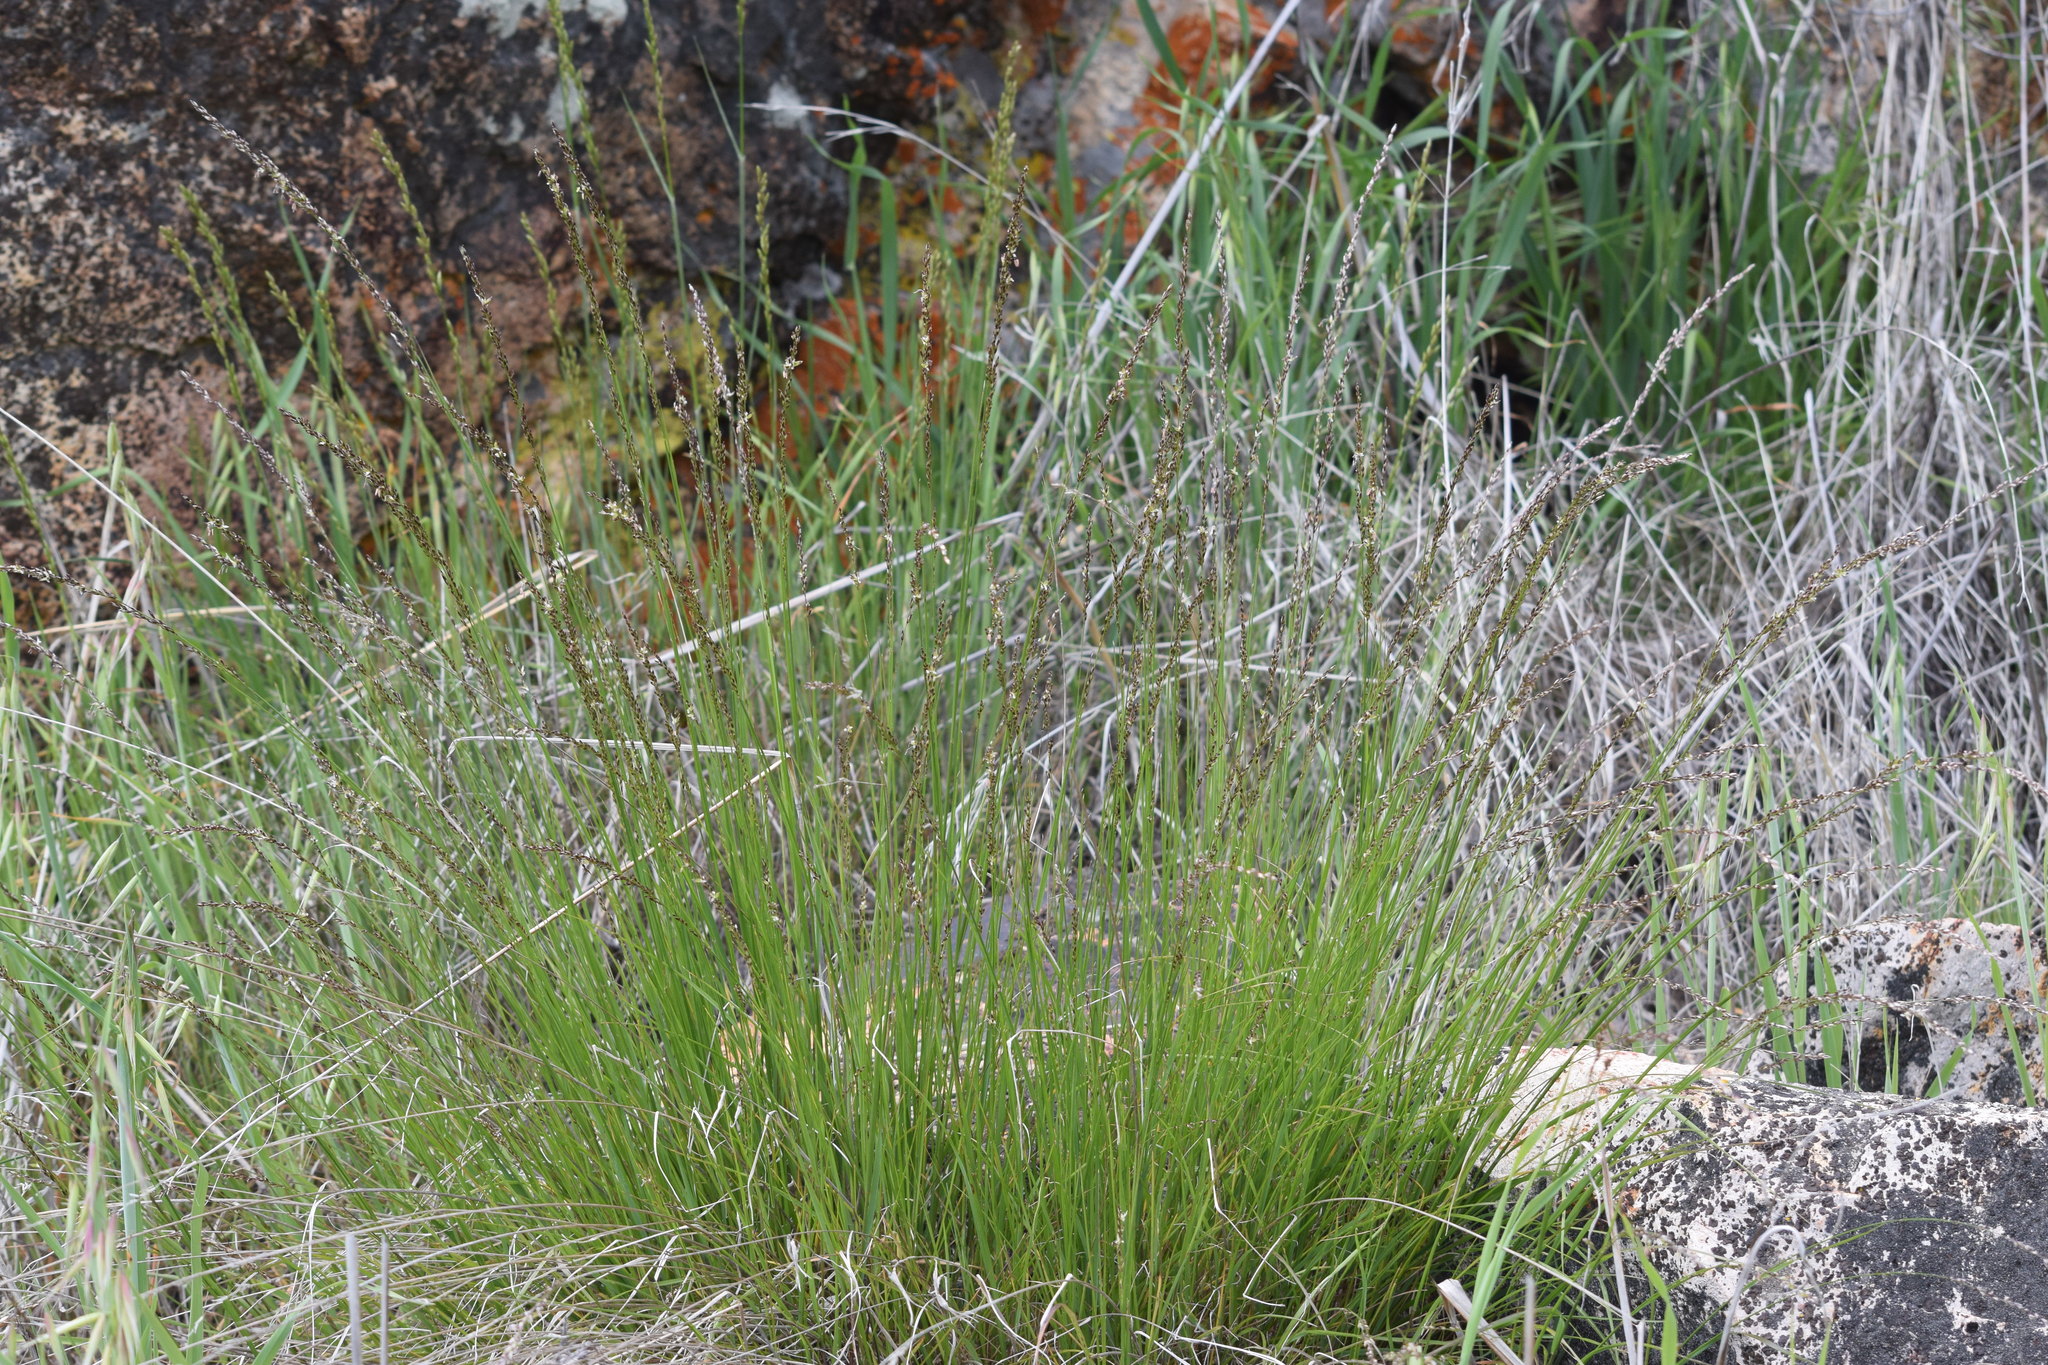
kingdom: Plantae
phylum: Tracheophyta
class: Liliopsida
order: Poales
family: Poaceae
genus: Melica
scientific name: Melica imperfecta
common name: California melic
